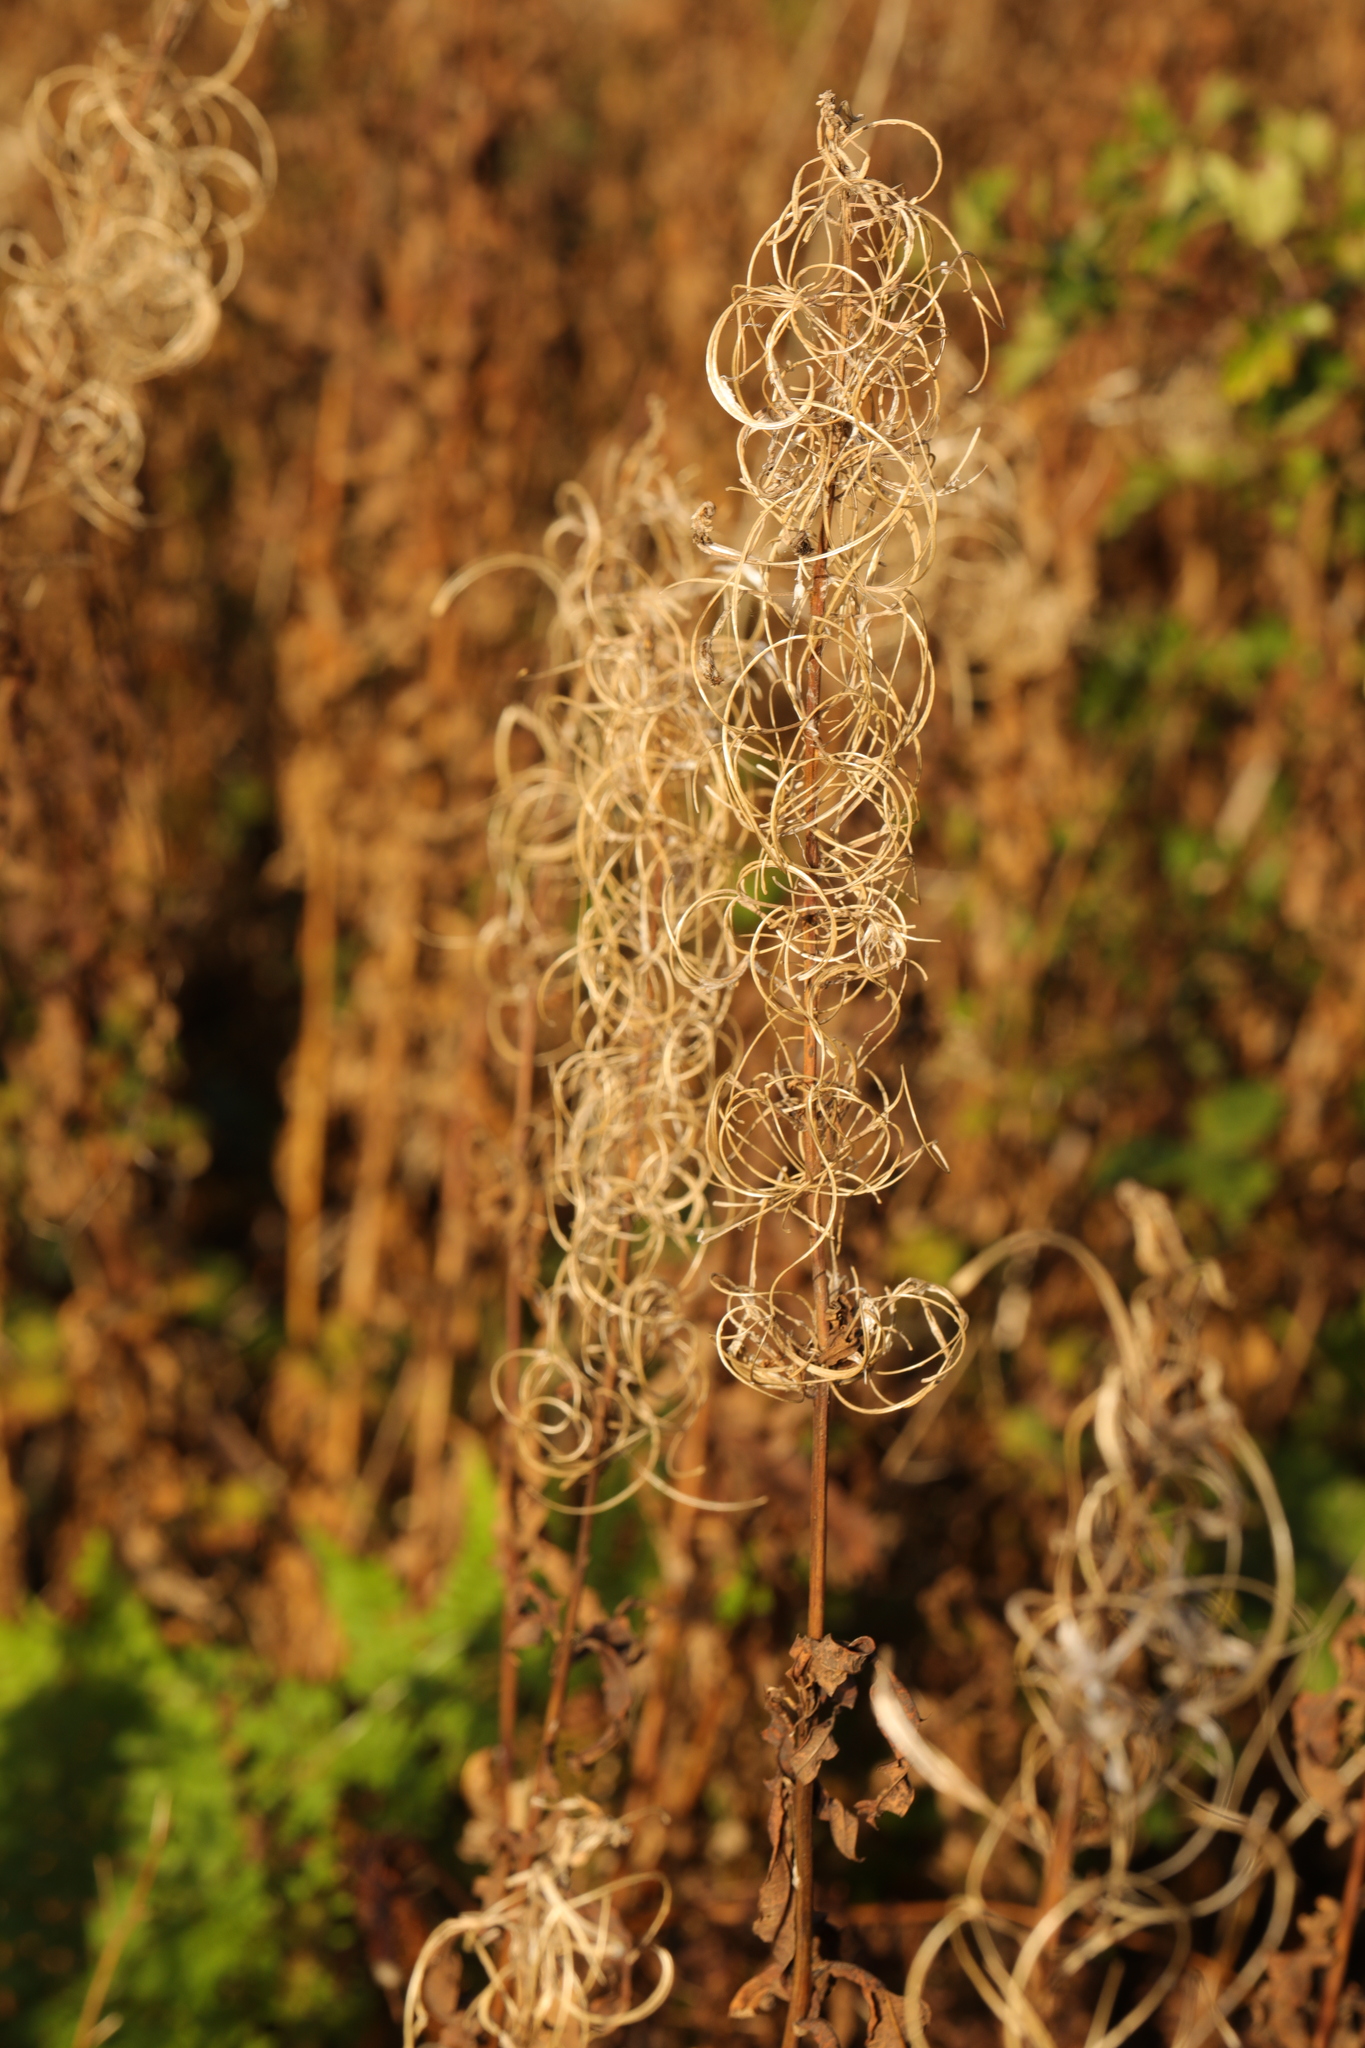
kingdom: Plantae
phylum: Tracheophyta
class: Magnoliopsida
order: Myrtales
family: Onagraceae
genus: Chamaenerion
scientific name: Chamaenerion angustifolium
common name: Fireweed
